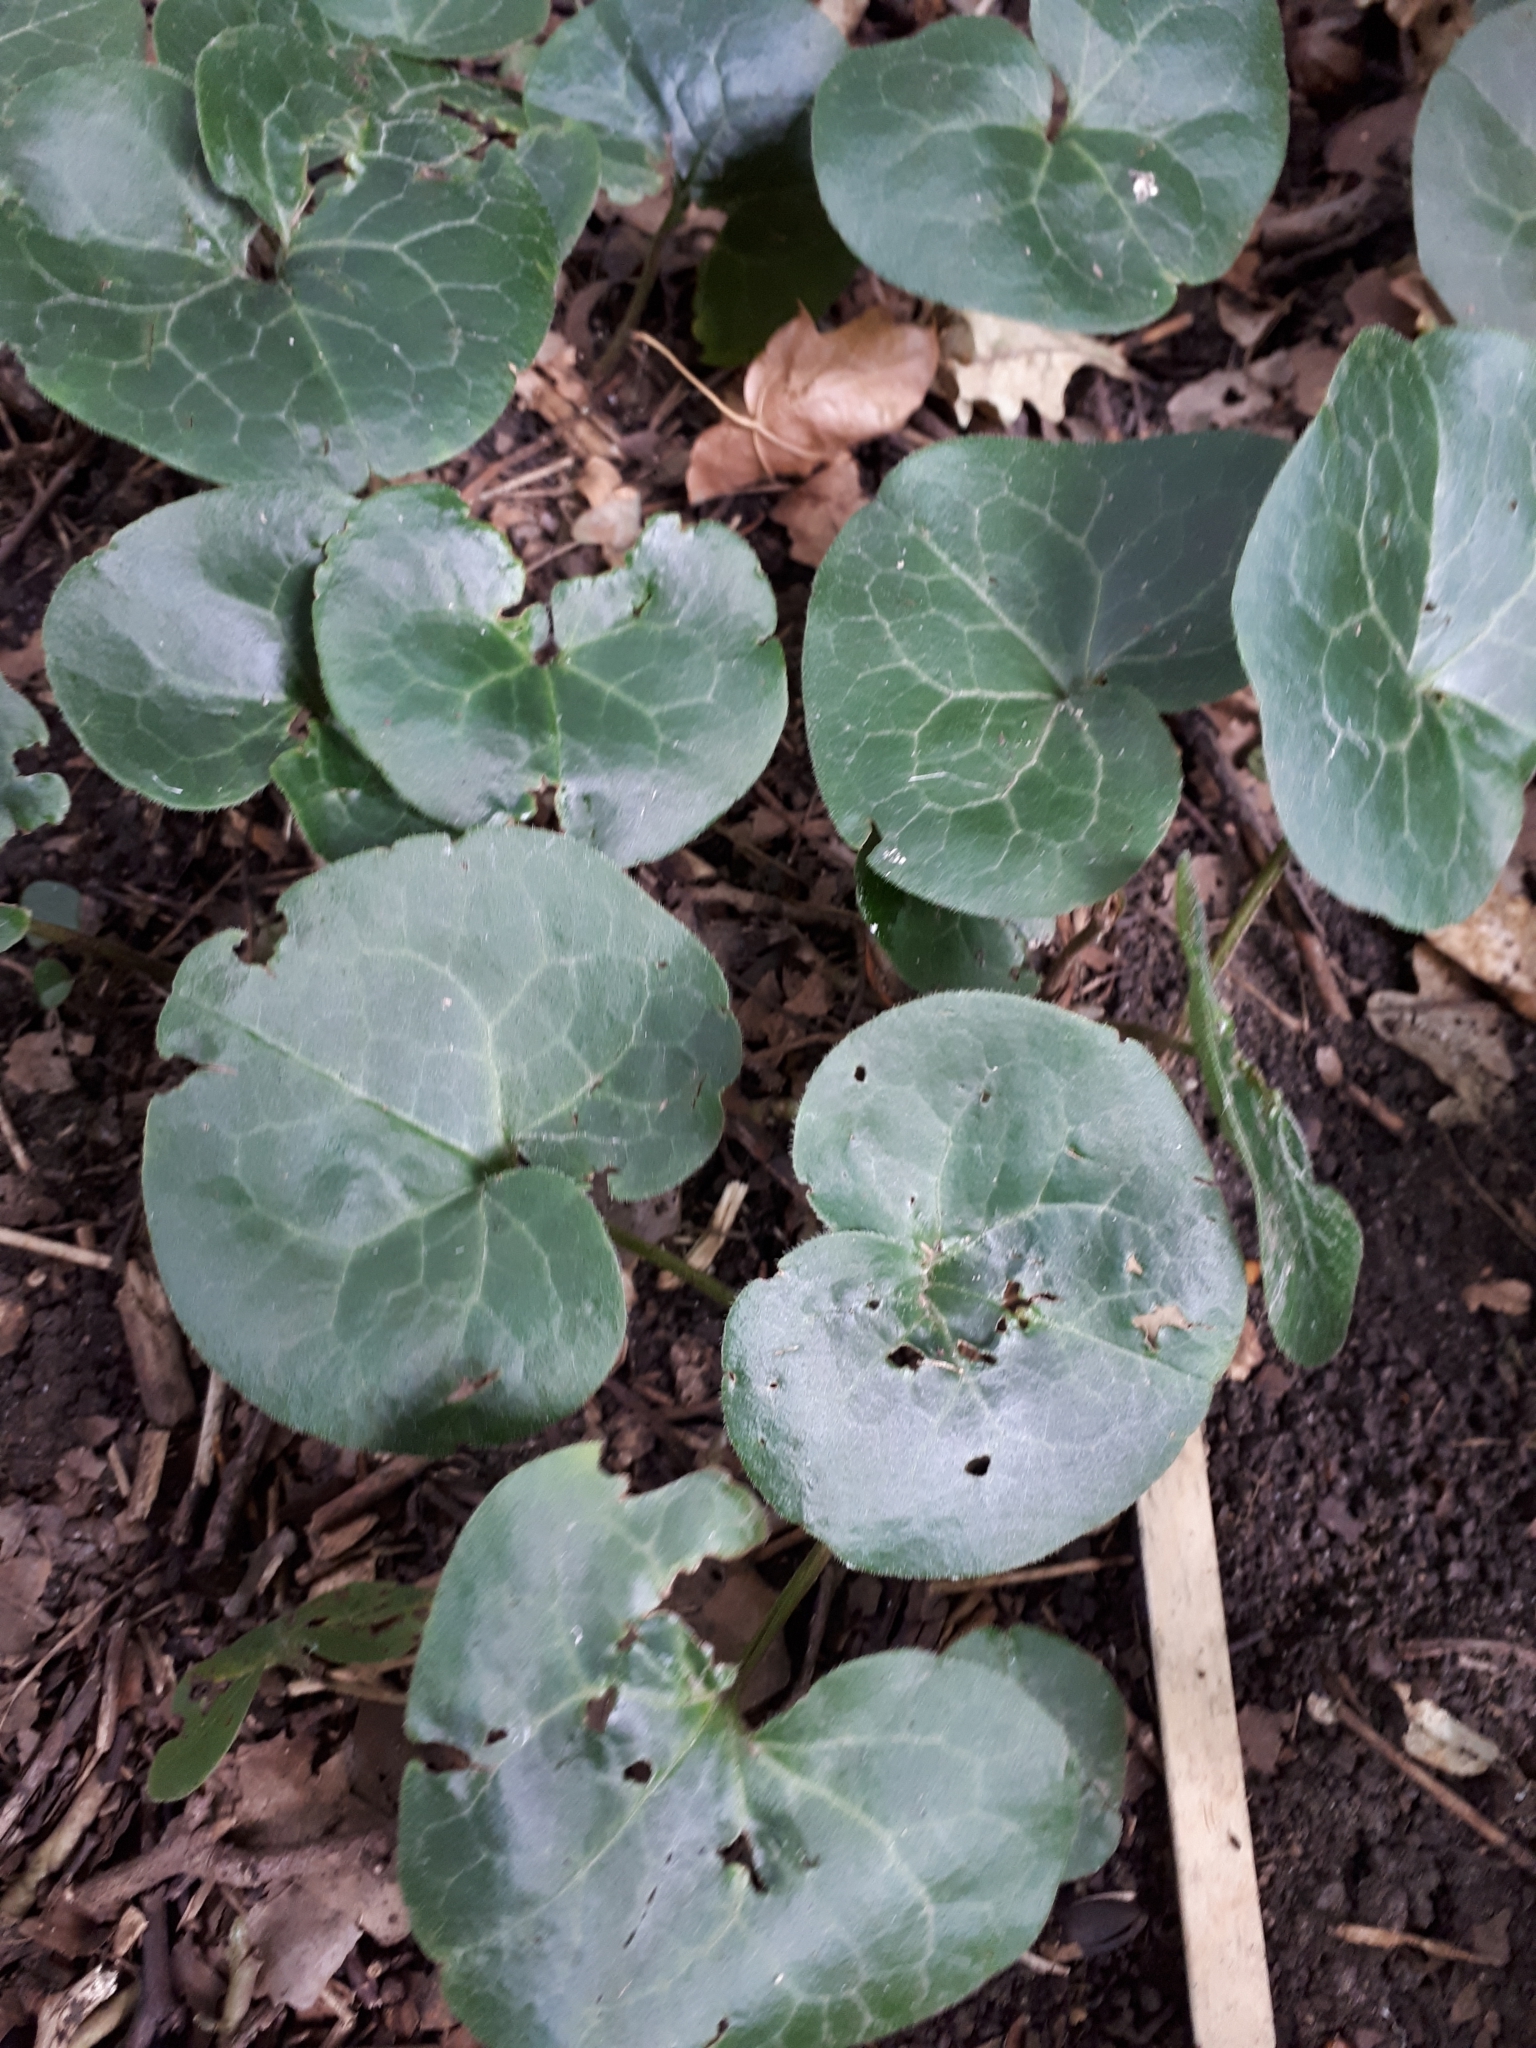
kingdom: Plantae
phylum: Tracheophyta
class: Magnoliopsida
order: Piperales
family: Aristolochiaceae
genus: Asarum
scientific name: Asarum europaeum
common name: Asarabacca
